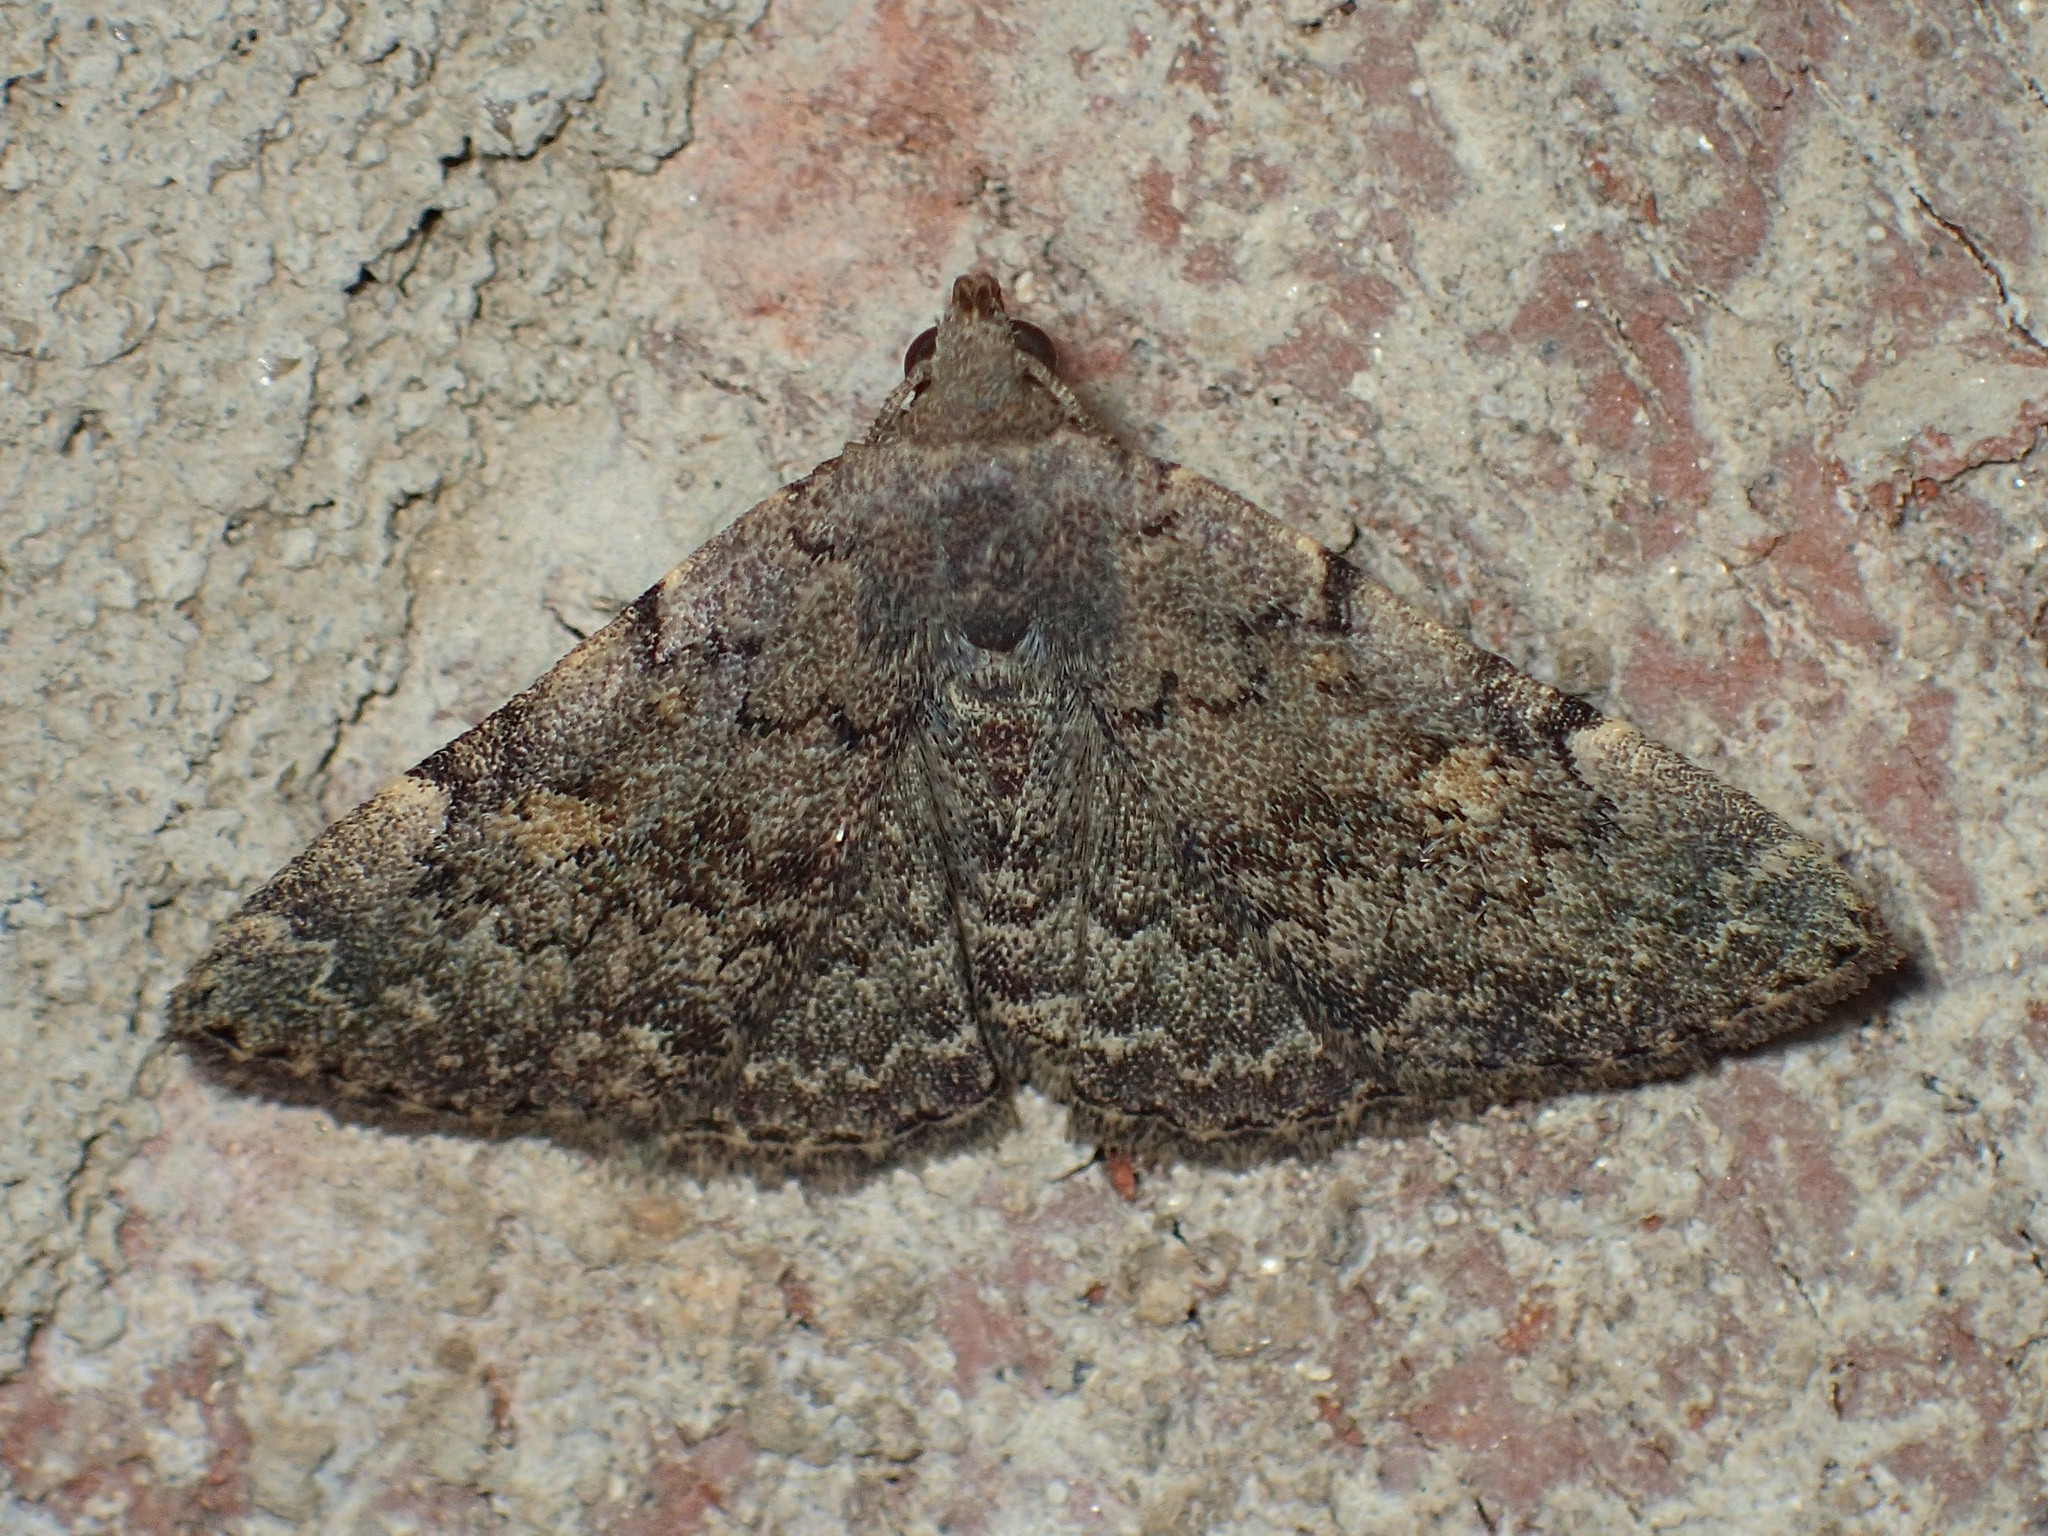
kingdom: Animalia
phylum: Arthropoda
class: Insecta
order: Lepidoptera
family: Erebidae
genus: Idia
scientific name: Idia aemula
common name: Common idia moth
